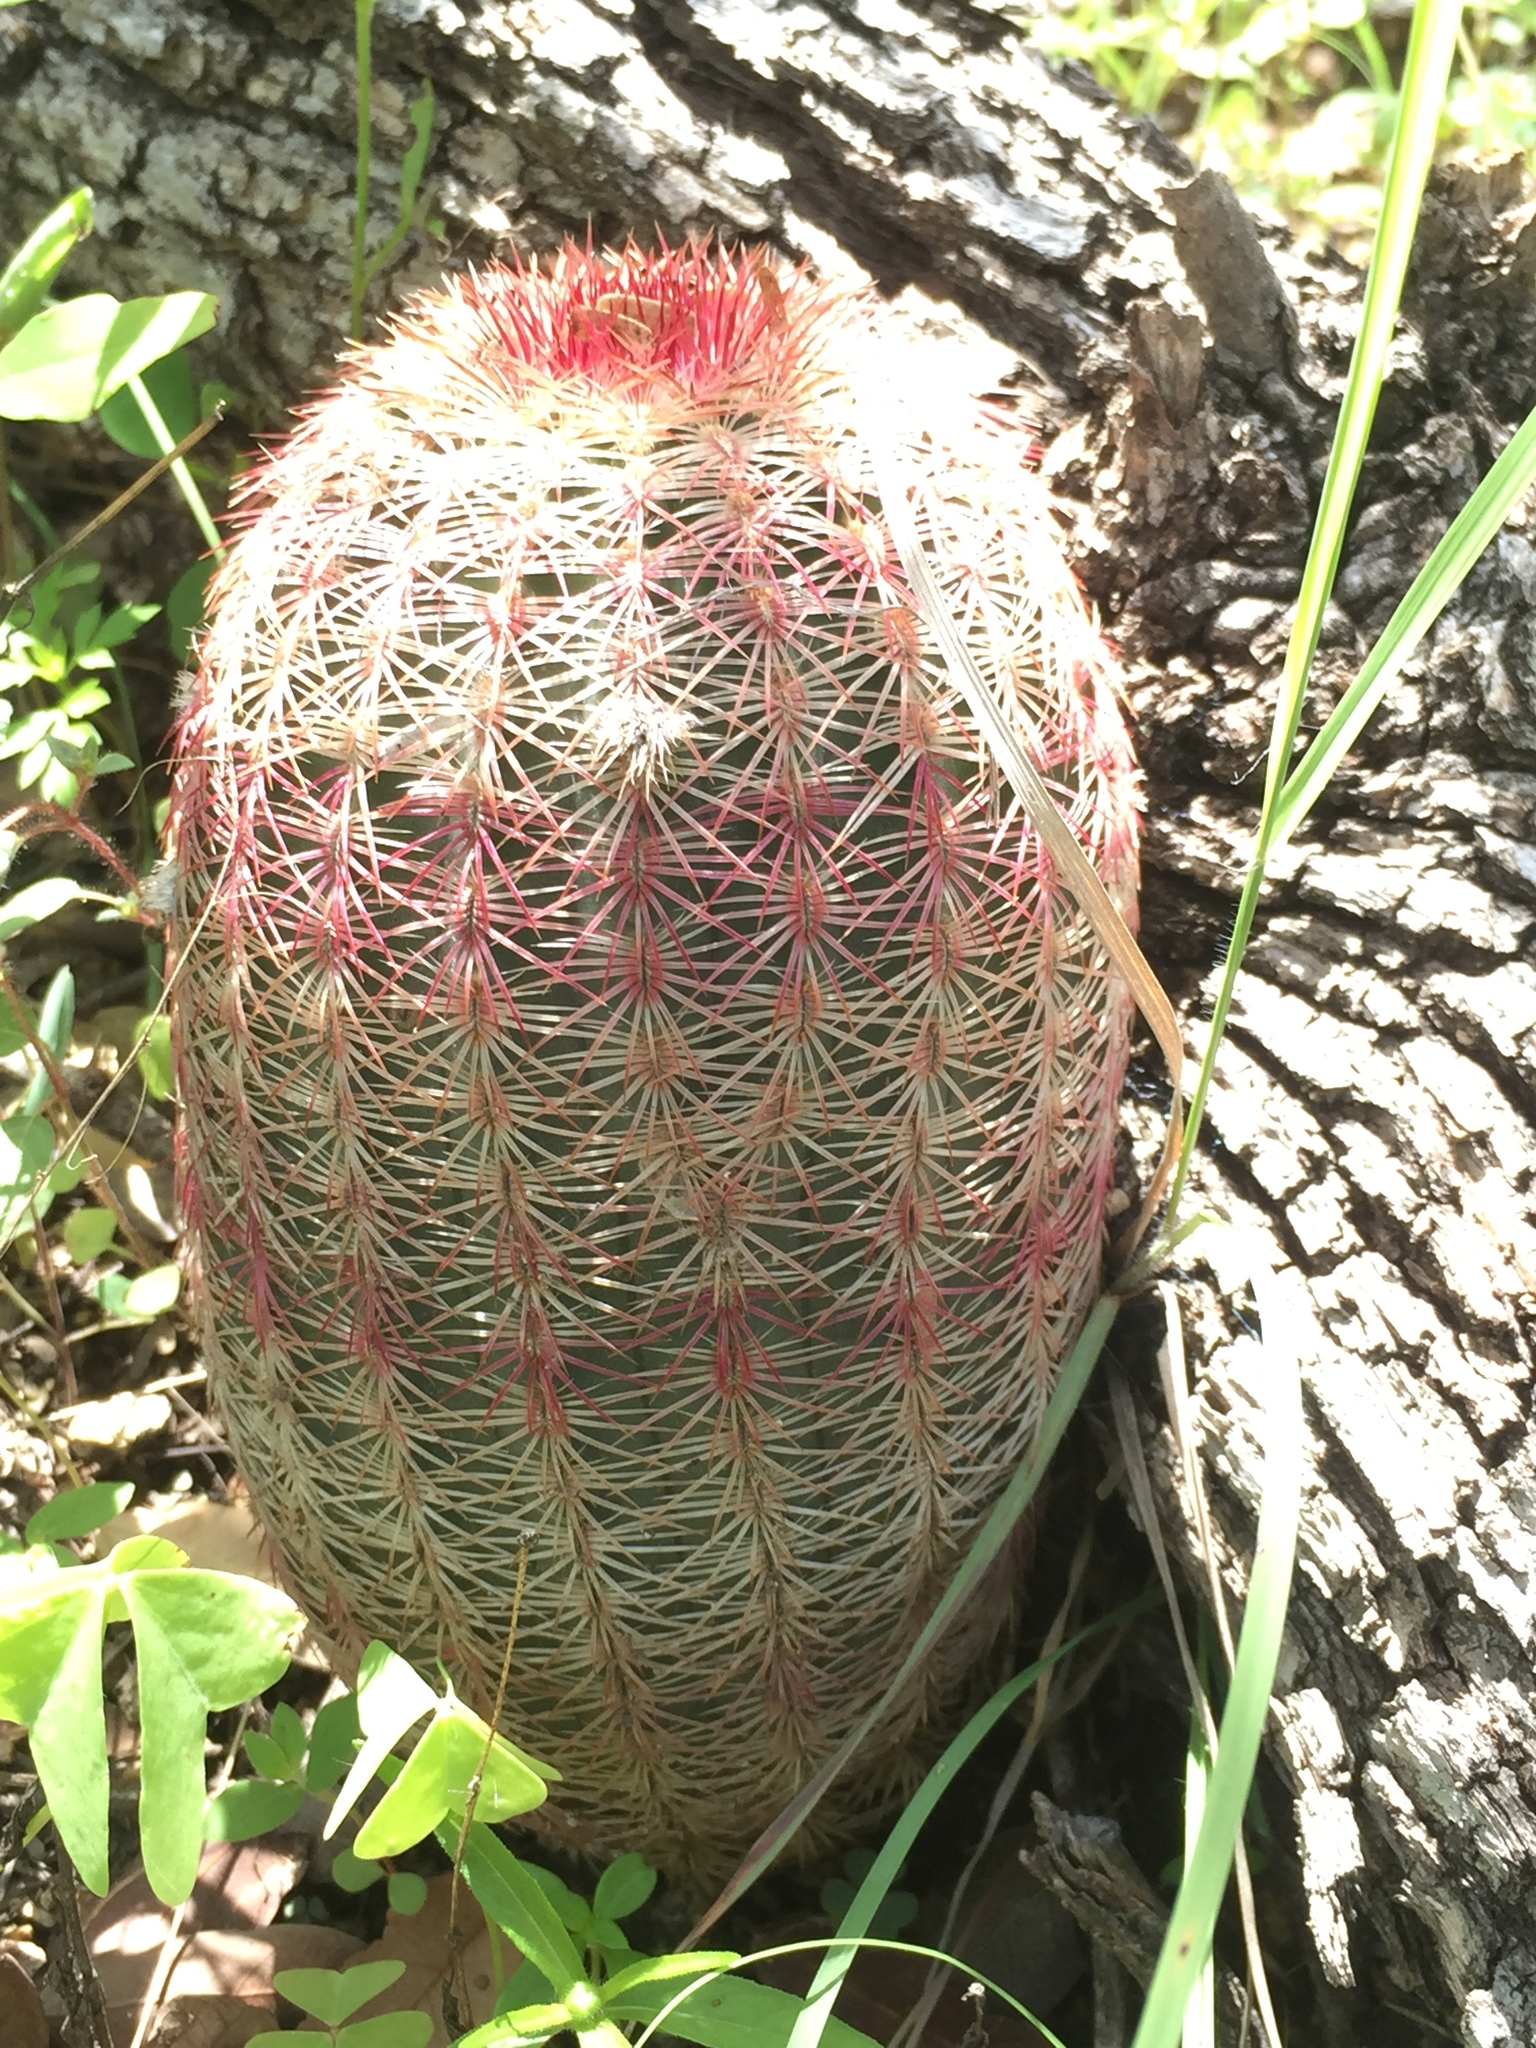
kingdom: Plantae
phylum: Tracheophyta
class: Magnoliopsida
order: Caryophyllales
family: Cactaceae
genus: Echinocereus
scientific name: Echinocereus rigidissimus
